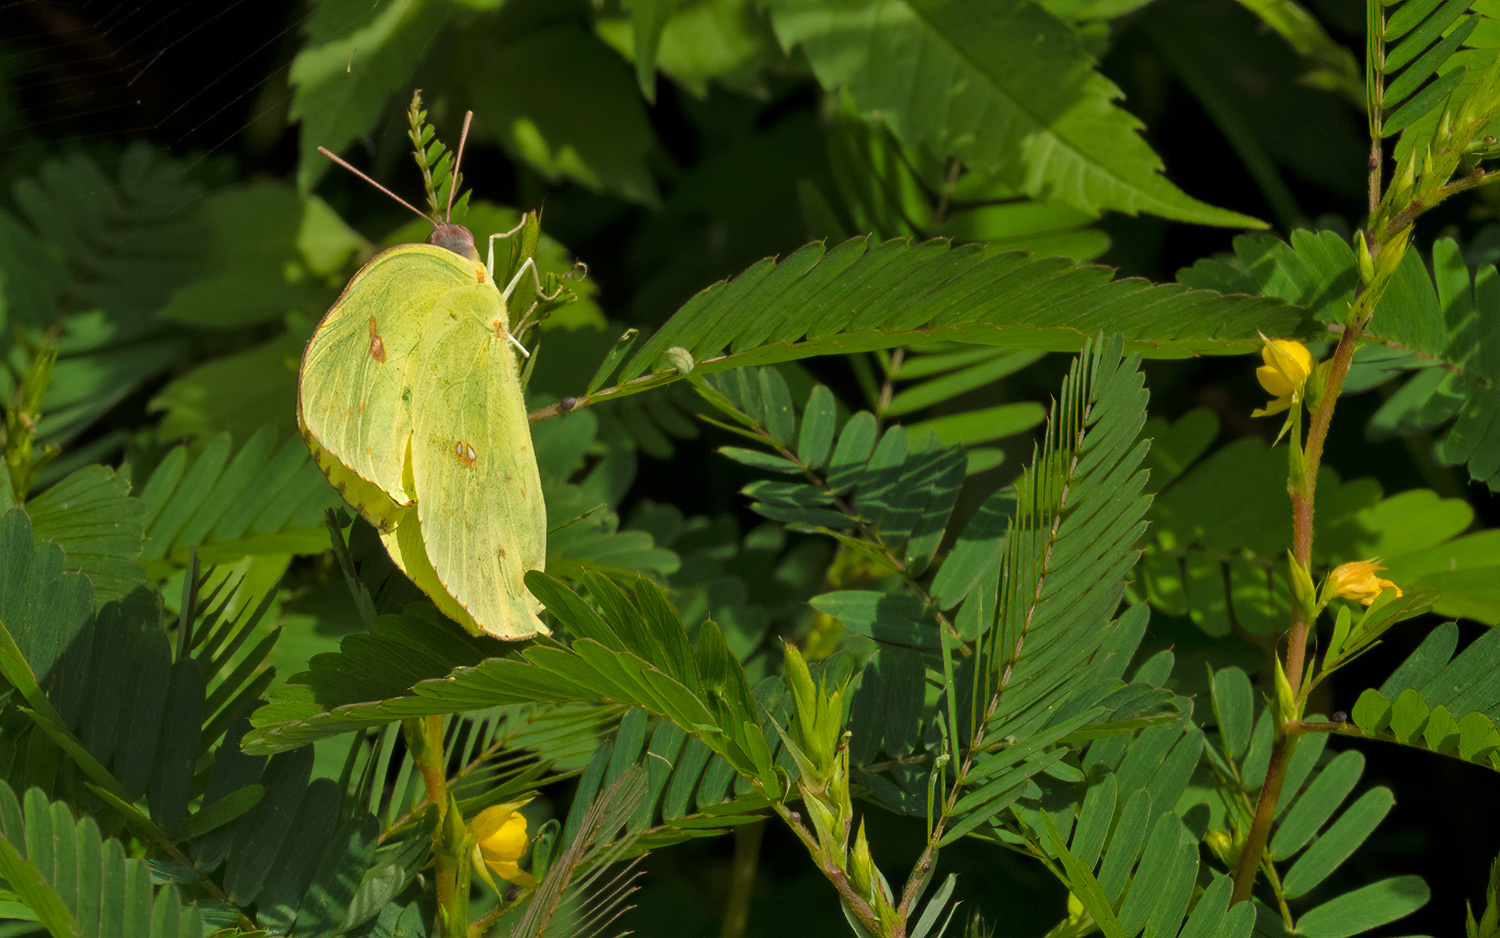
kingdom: Animalia
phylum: Arthropoda
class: Insecta
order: Lepidoptera
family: Pieridae
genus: Phoebis
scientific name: Phoebis sennae
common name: Cloudless sulphur
